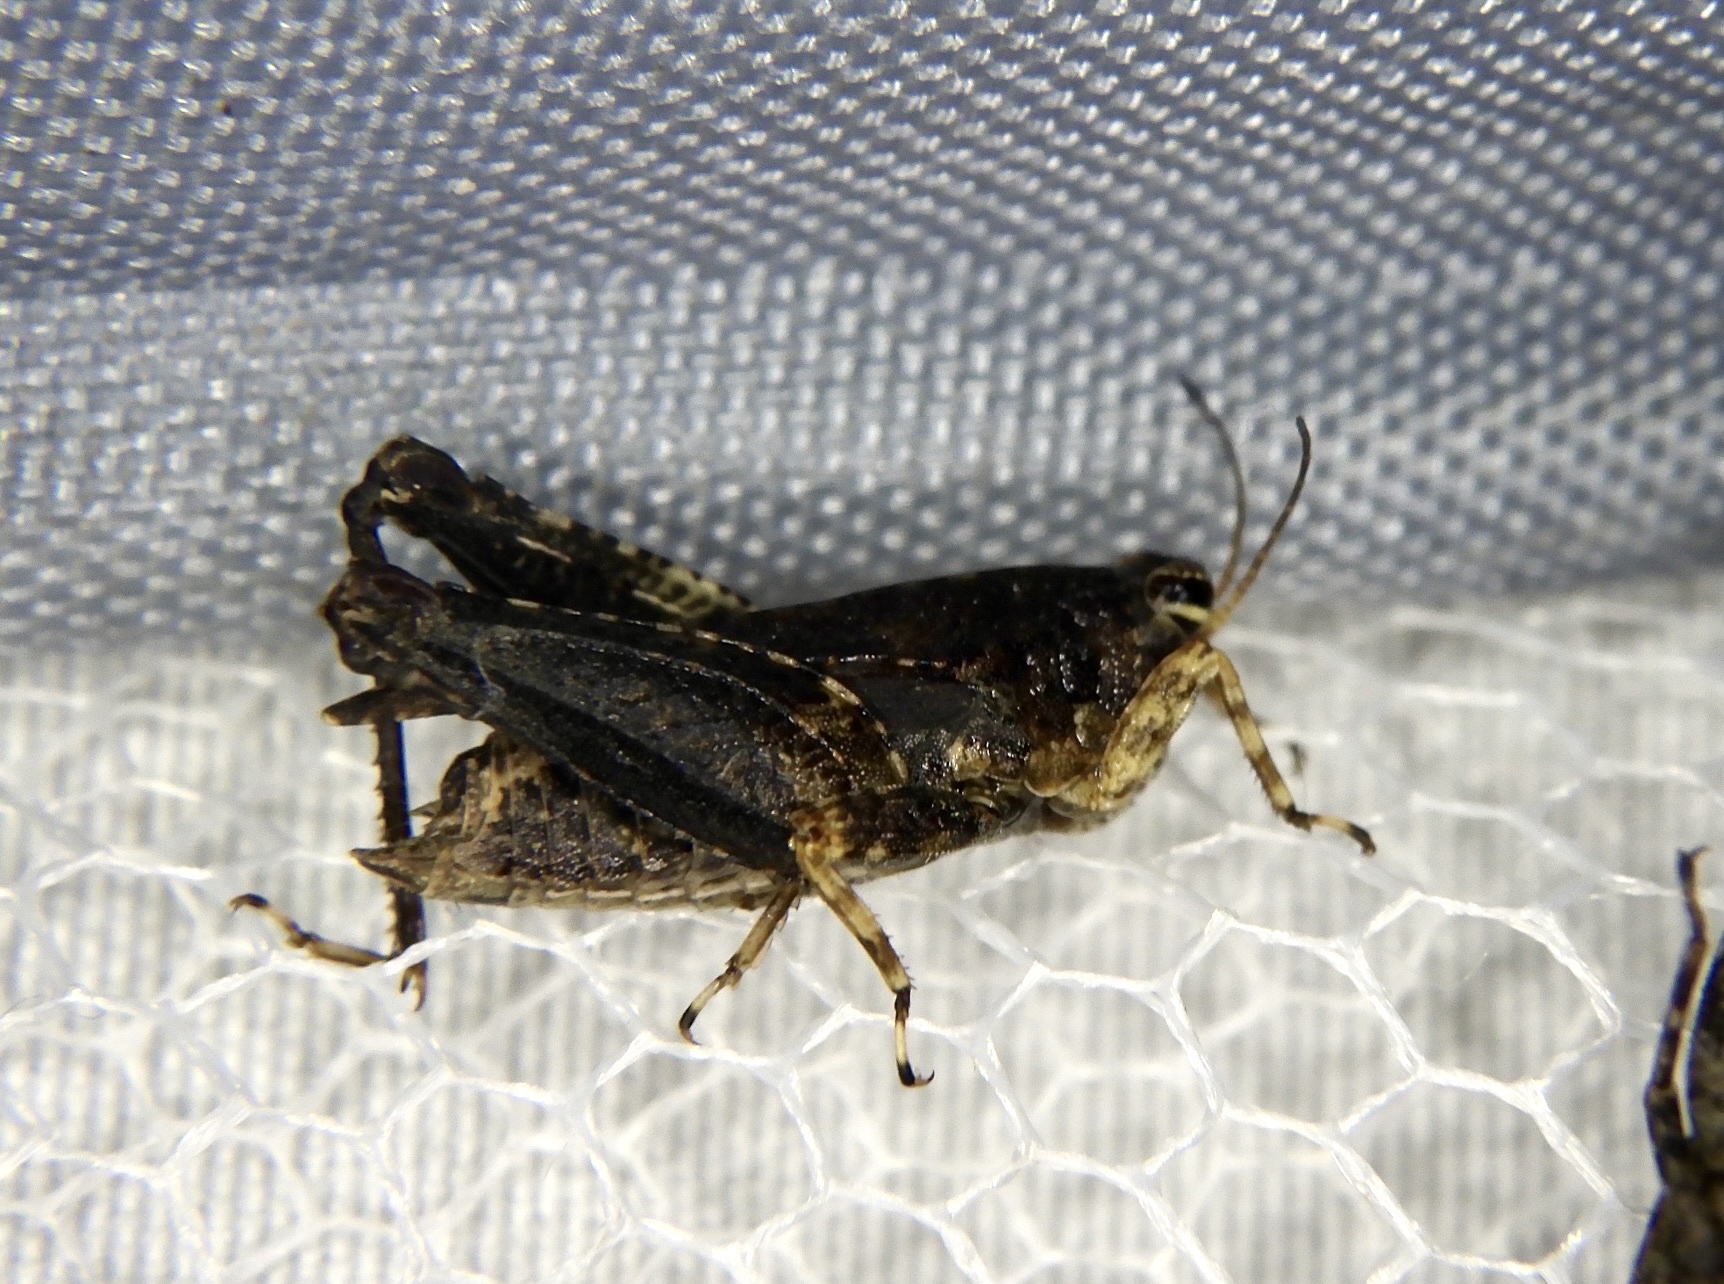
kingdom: Animalia
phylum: Arthropoda
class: Insecta
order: Orthoptera
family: Tetrigidae
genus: Tetrix
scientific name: Tetrix japonica
